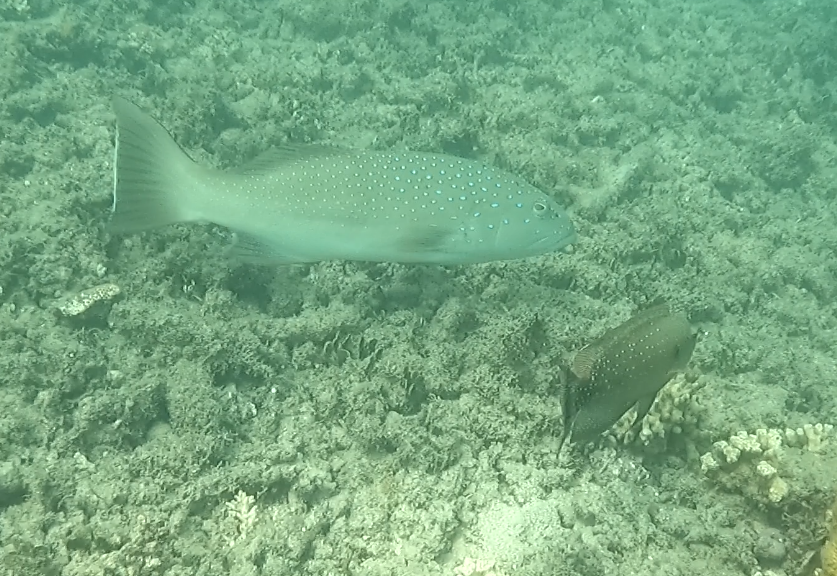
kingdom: Animalia
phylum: Chordata
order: Perciformes
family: Labridae
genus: Cheilinus
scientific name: Cheilinus chlorourus
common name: Floral wrasse
